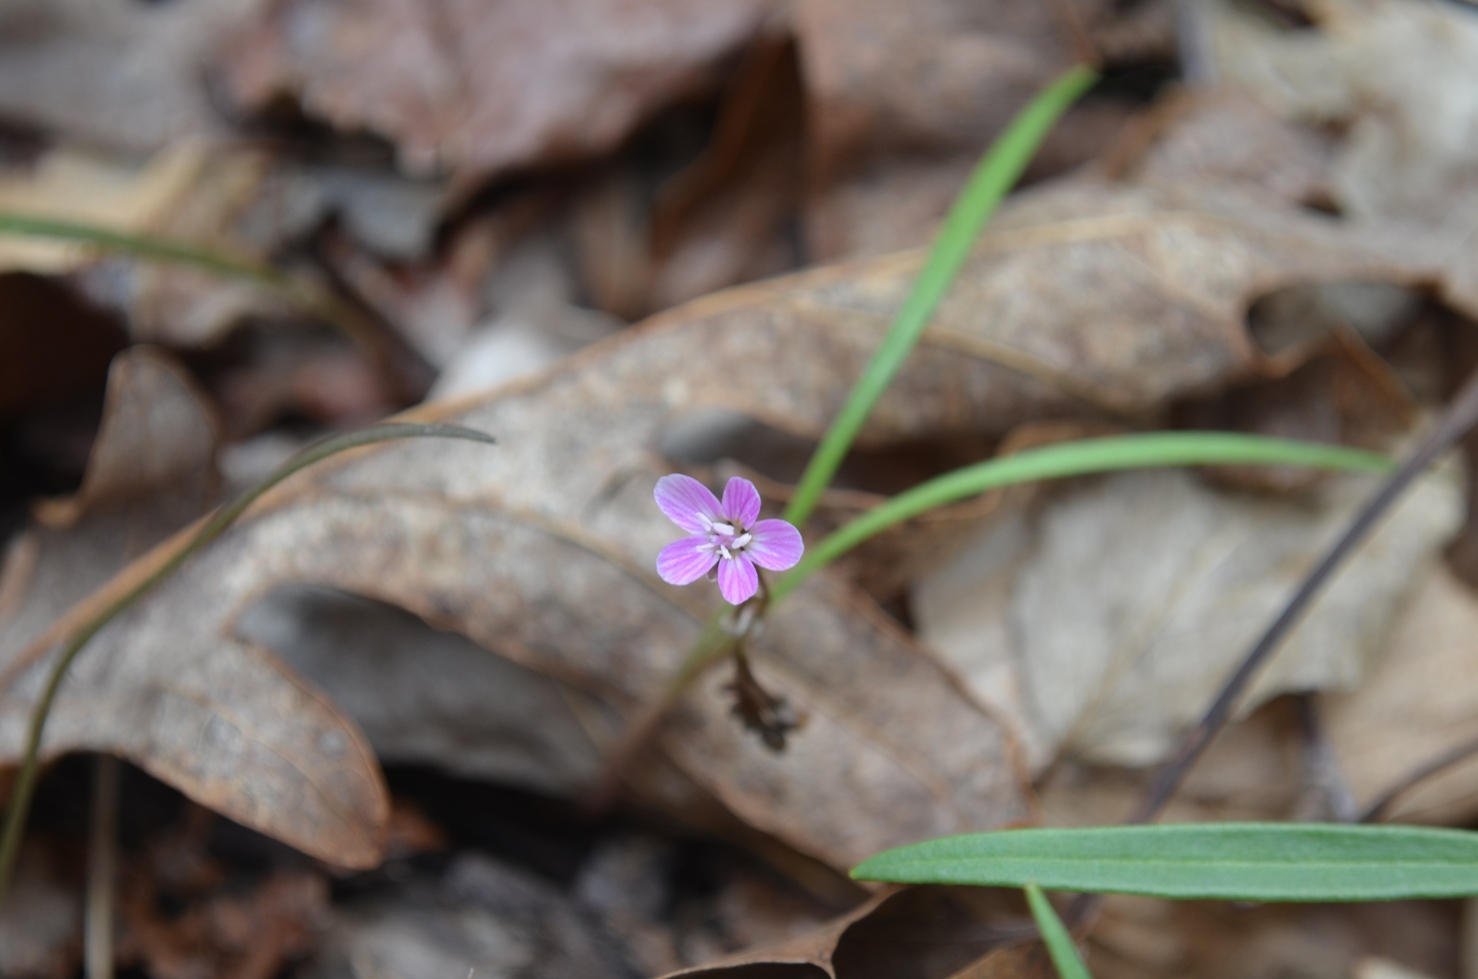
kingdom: Plantae
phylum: Tracheophyta
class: Magnoliopsida
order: Caryophyllales
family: Montiaceae
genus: Claytonia
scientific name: Claytonia virginica
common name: Virginia springbeauty
